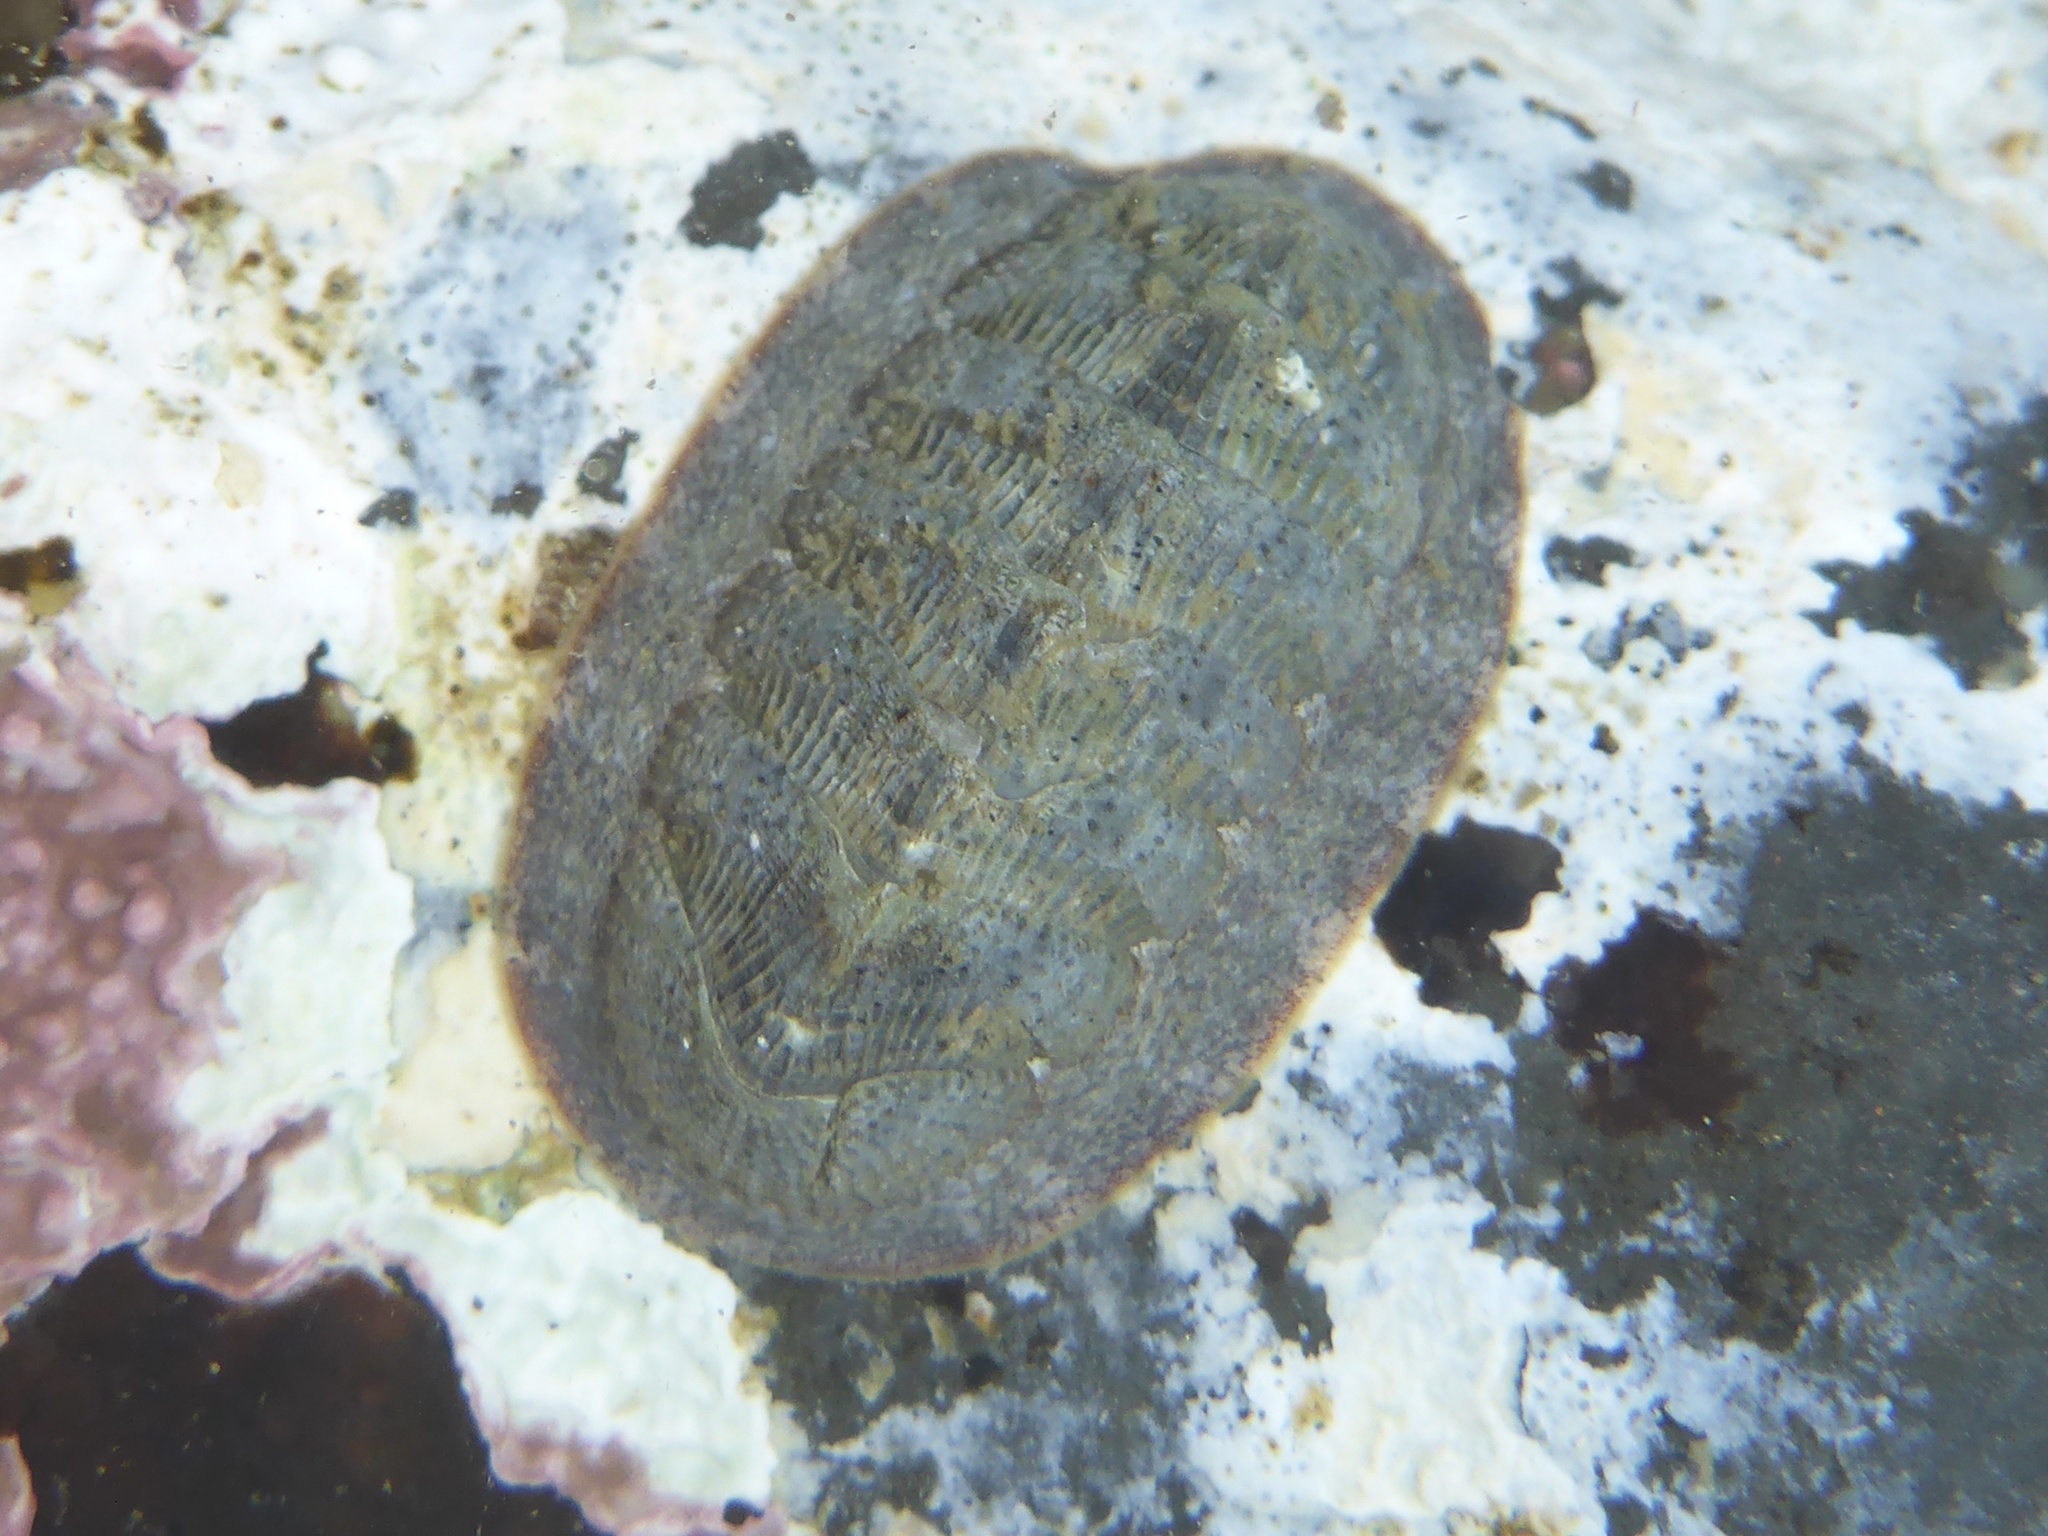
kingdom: Animalia
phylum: Mollusca
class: Polyplacophora
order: Chitonida
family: Ischnochitonidae
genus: Lepidozona
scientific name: Lepidozona cooperi
